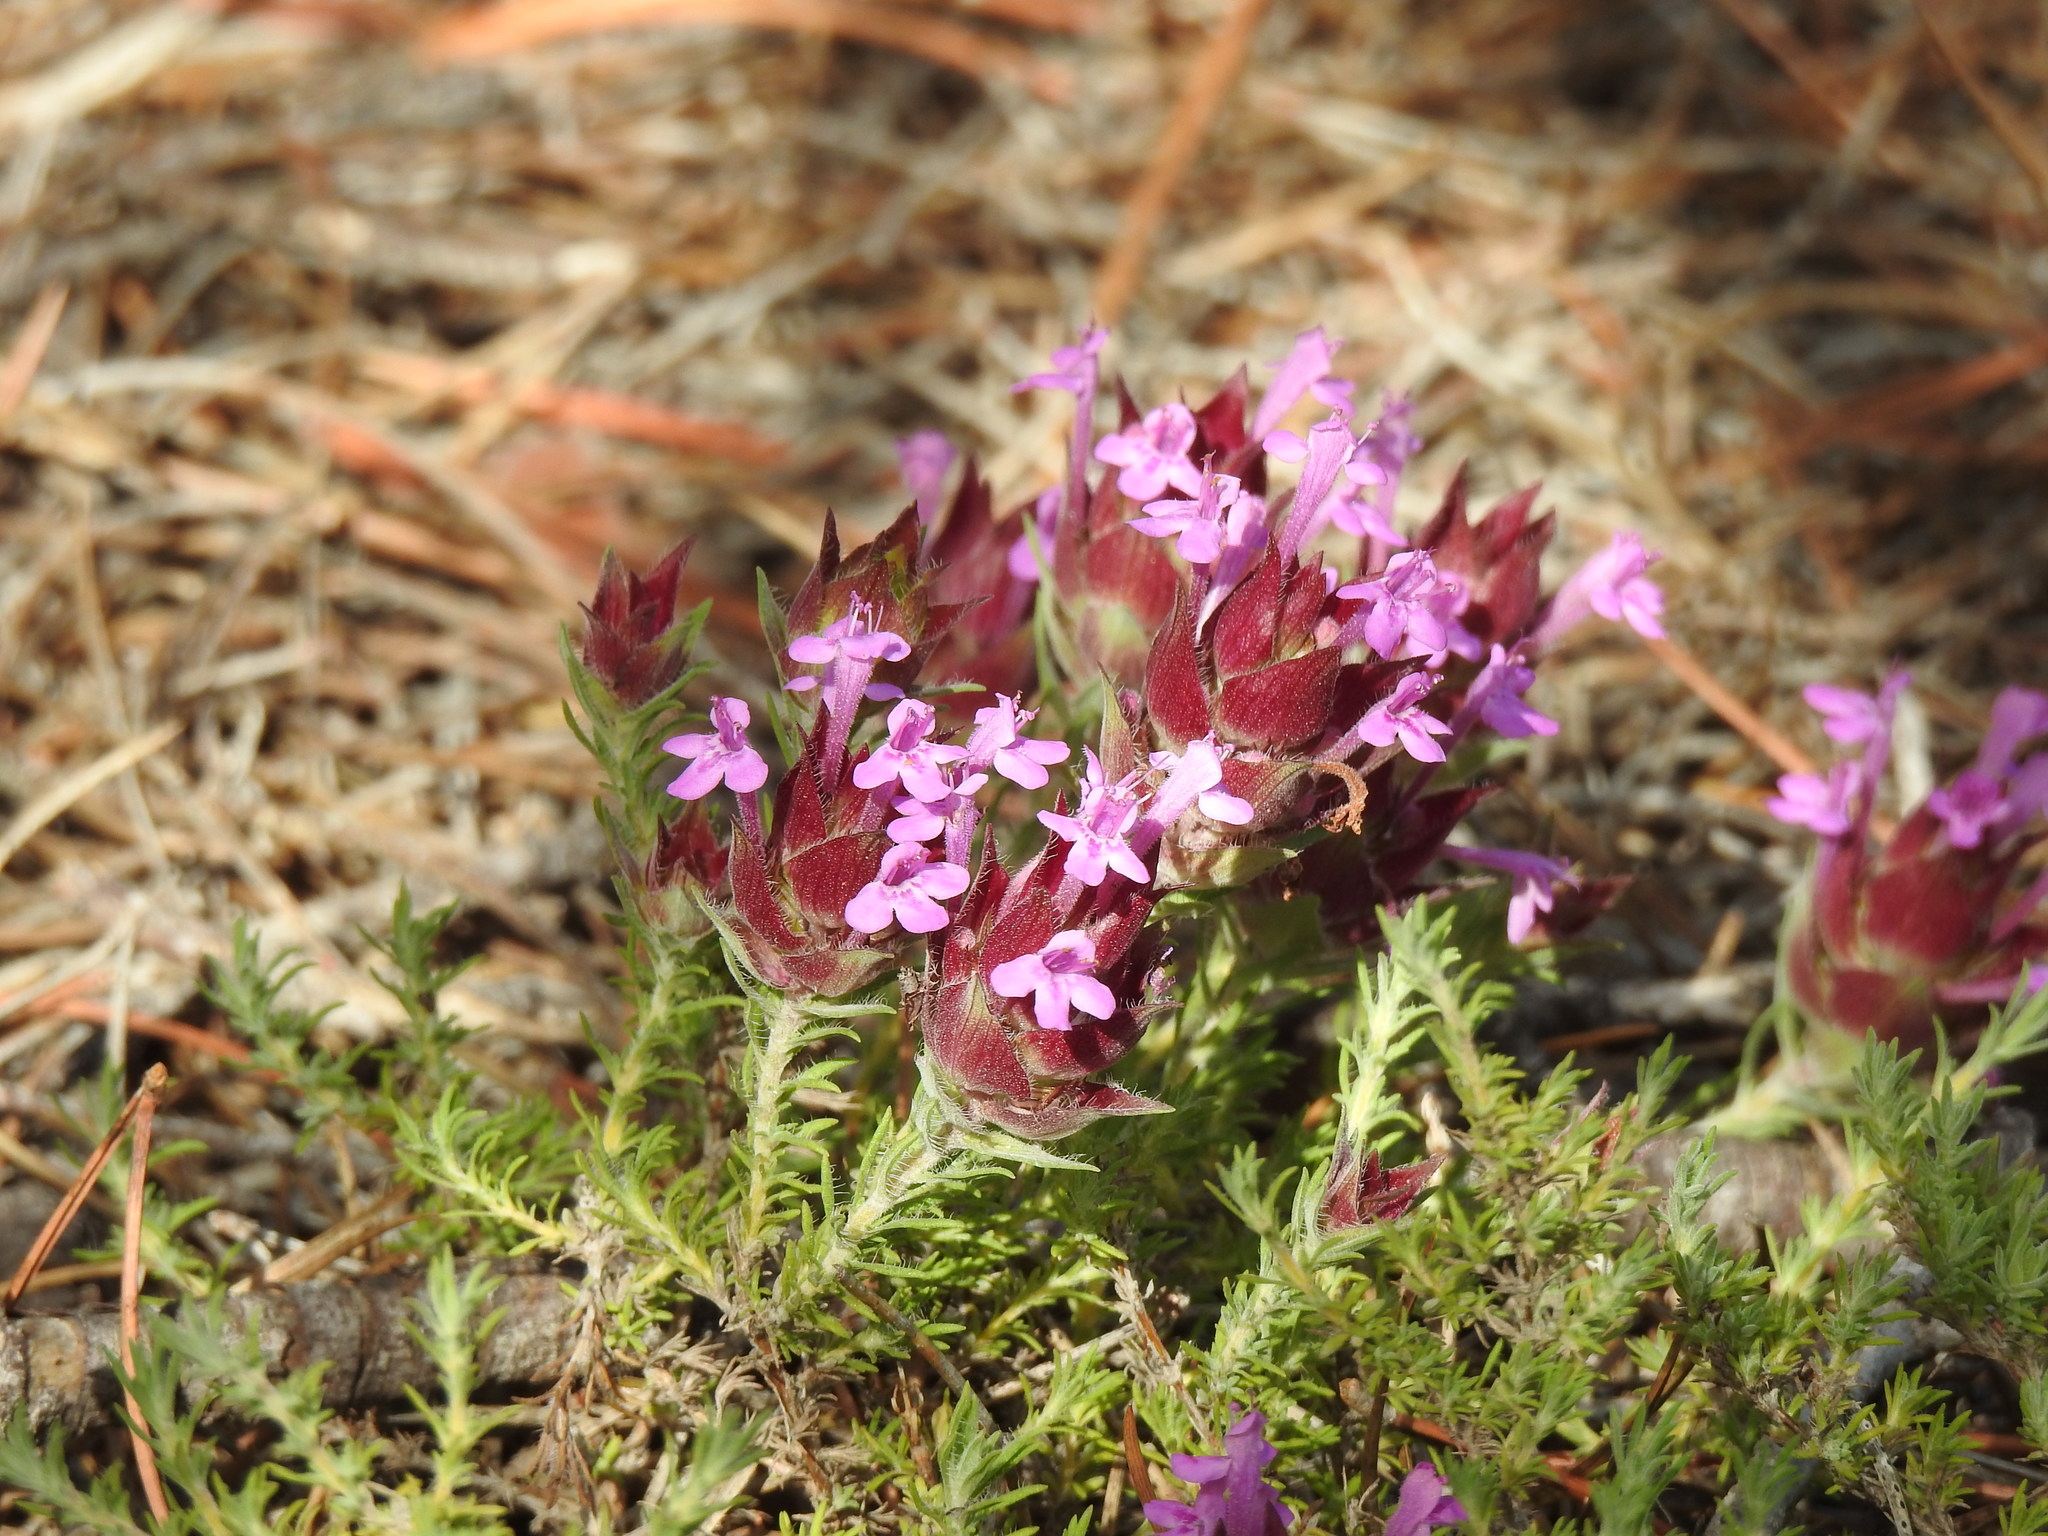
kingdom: Plantae
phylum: Tracheophyta
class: Magnoliopsida
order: Lamiales
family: Lamiaceae
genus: Thymus
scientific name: Thymus lotocephalus
